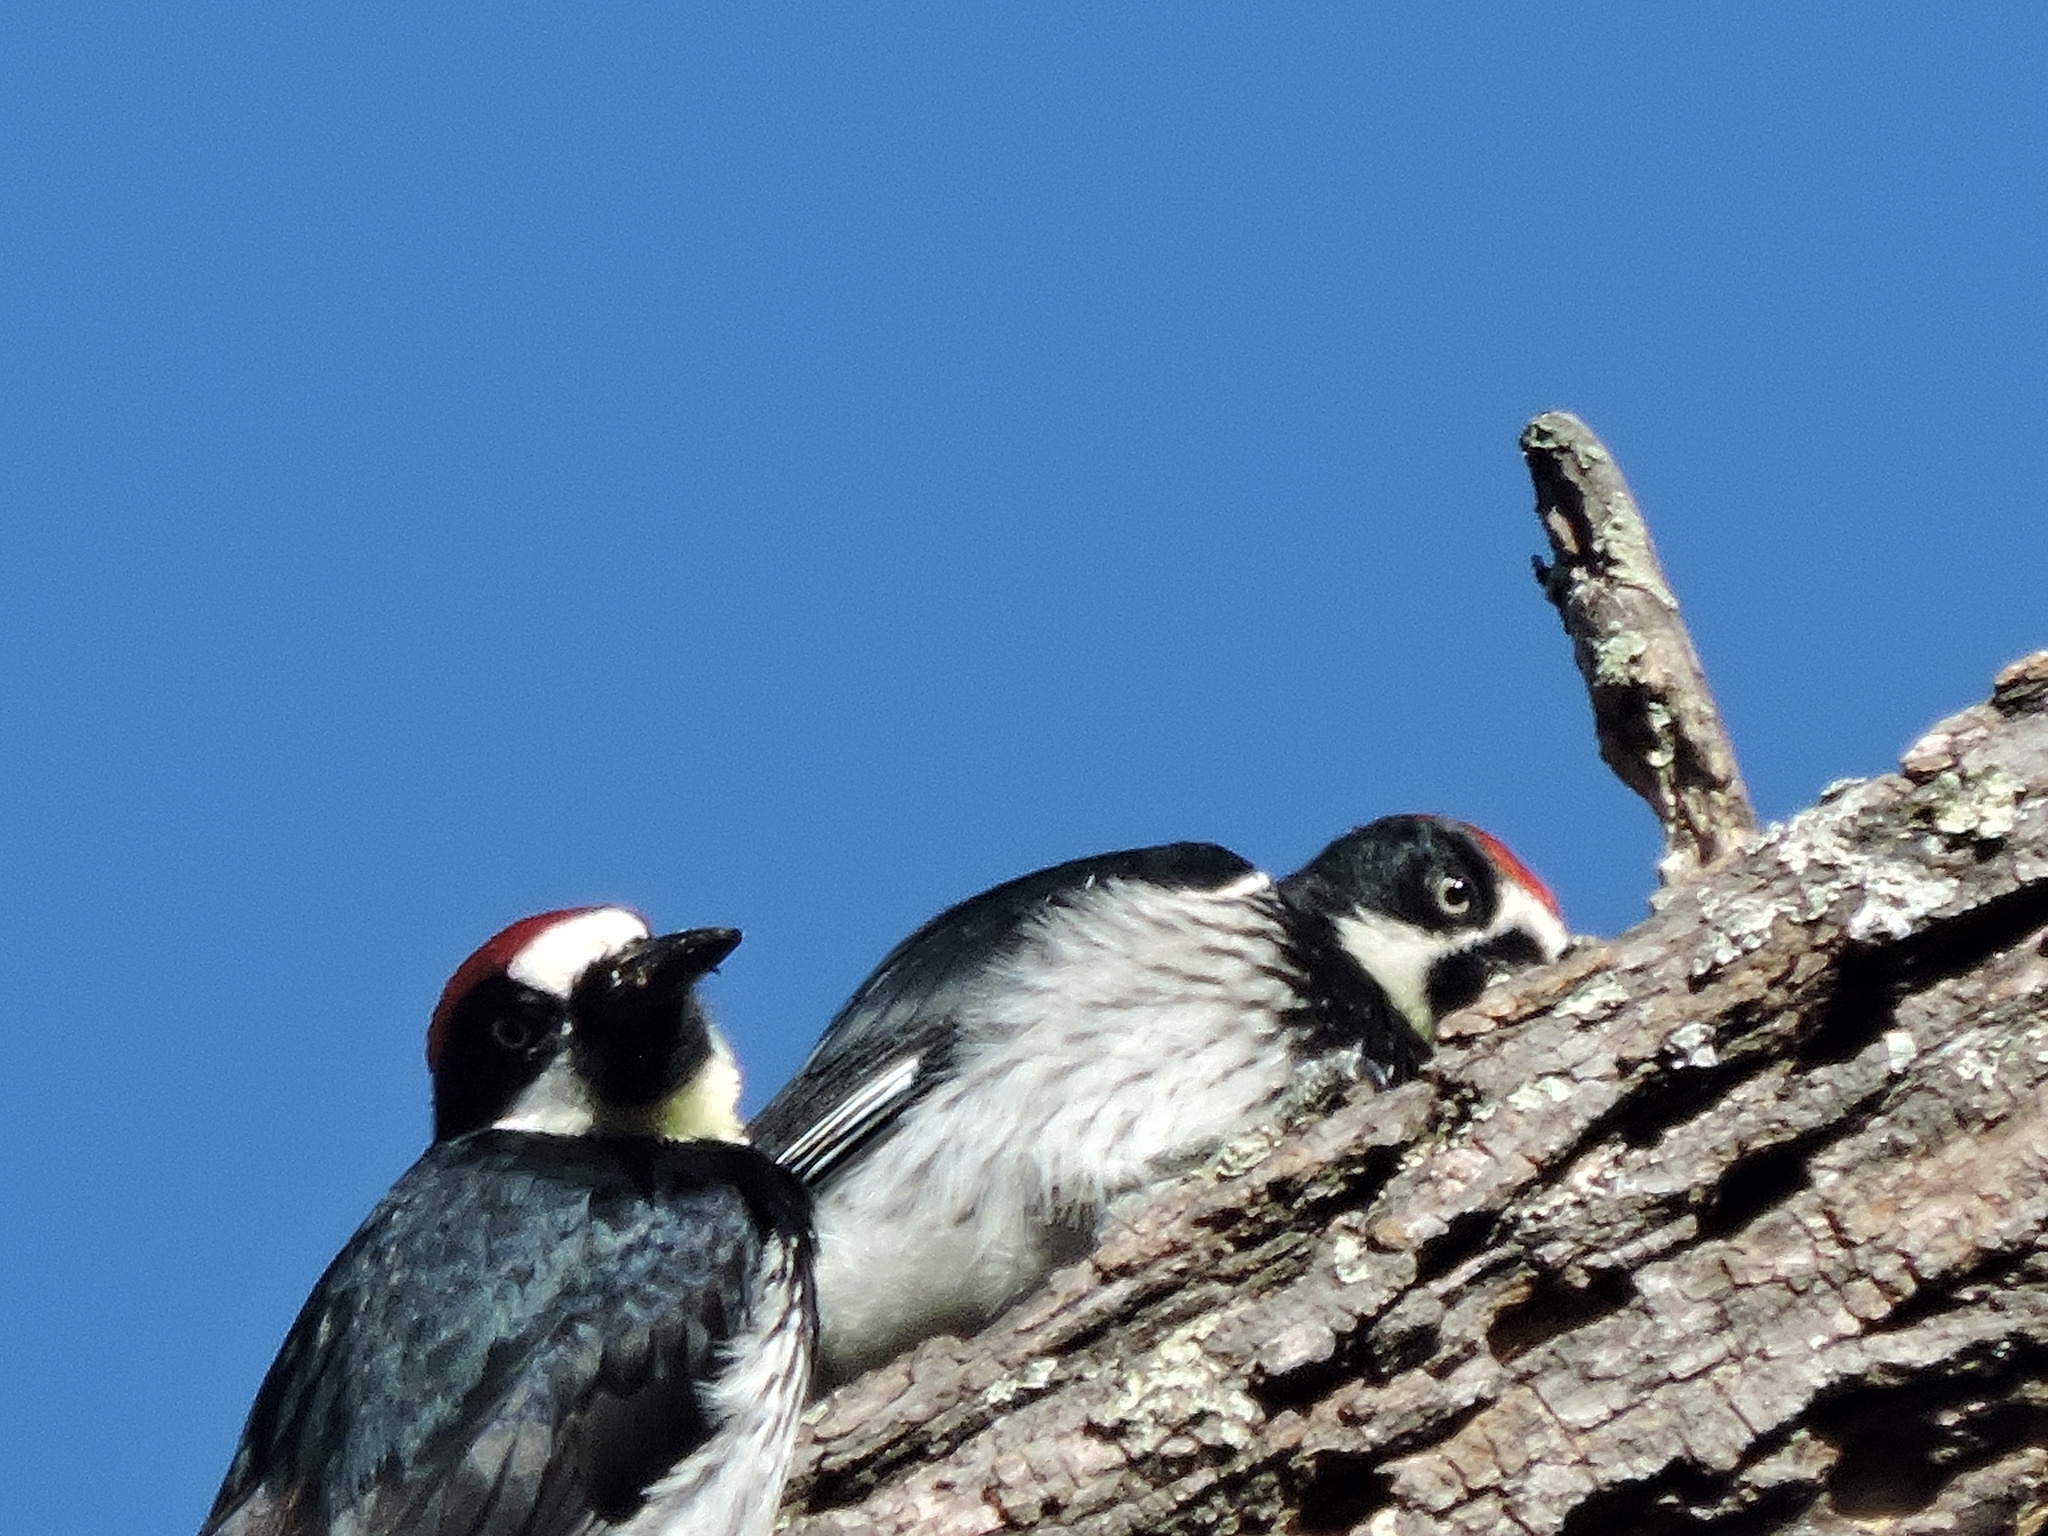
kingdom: Animalia
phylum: Chordata
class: Aves
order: Piciformes
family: Picidae
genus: Melanerpes
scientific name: Melanerpes formicivorus
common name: Acorn woodpecker
